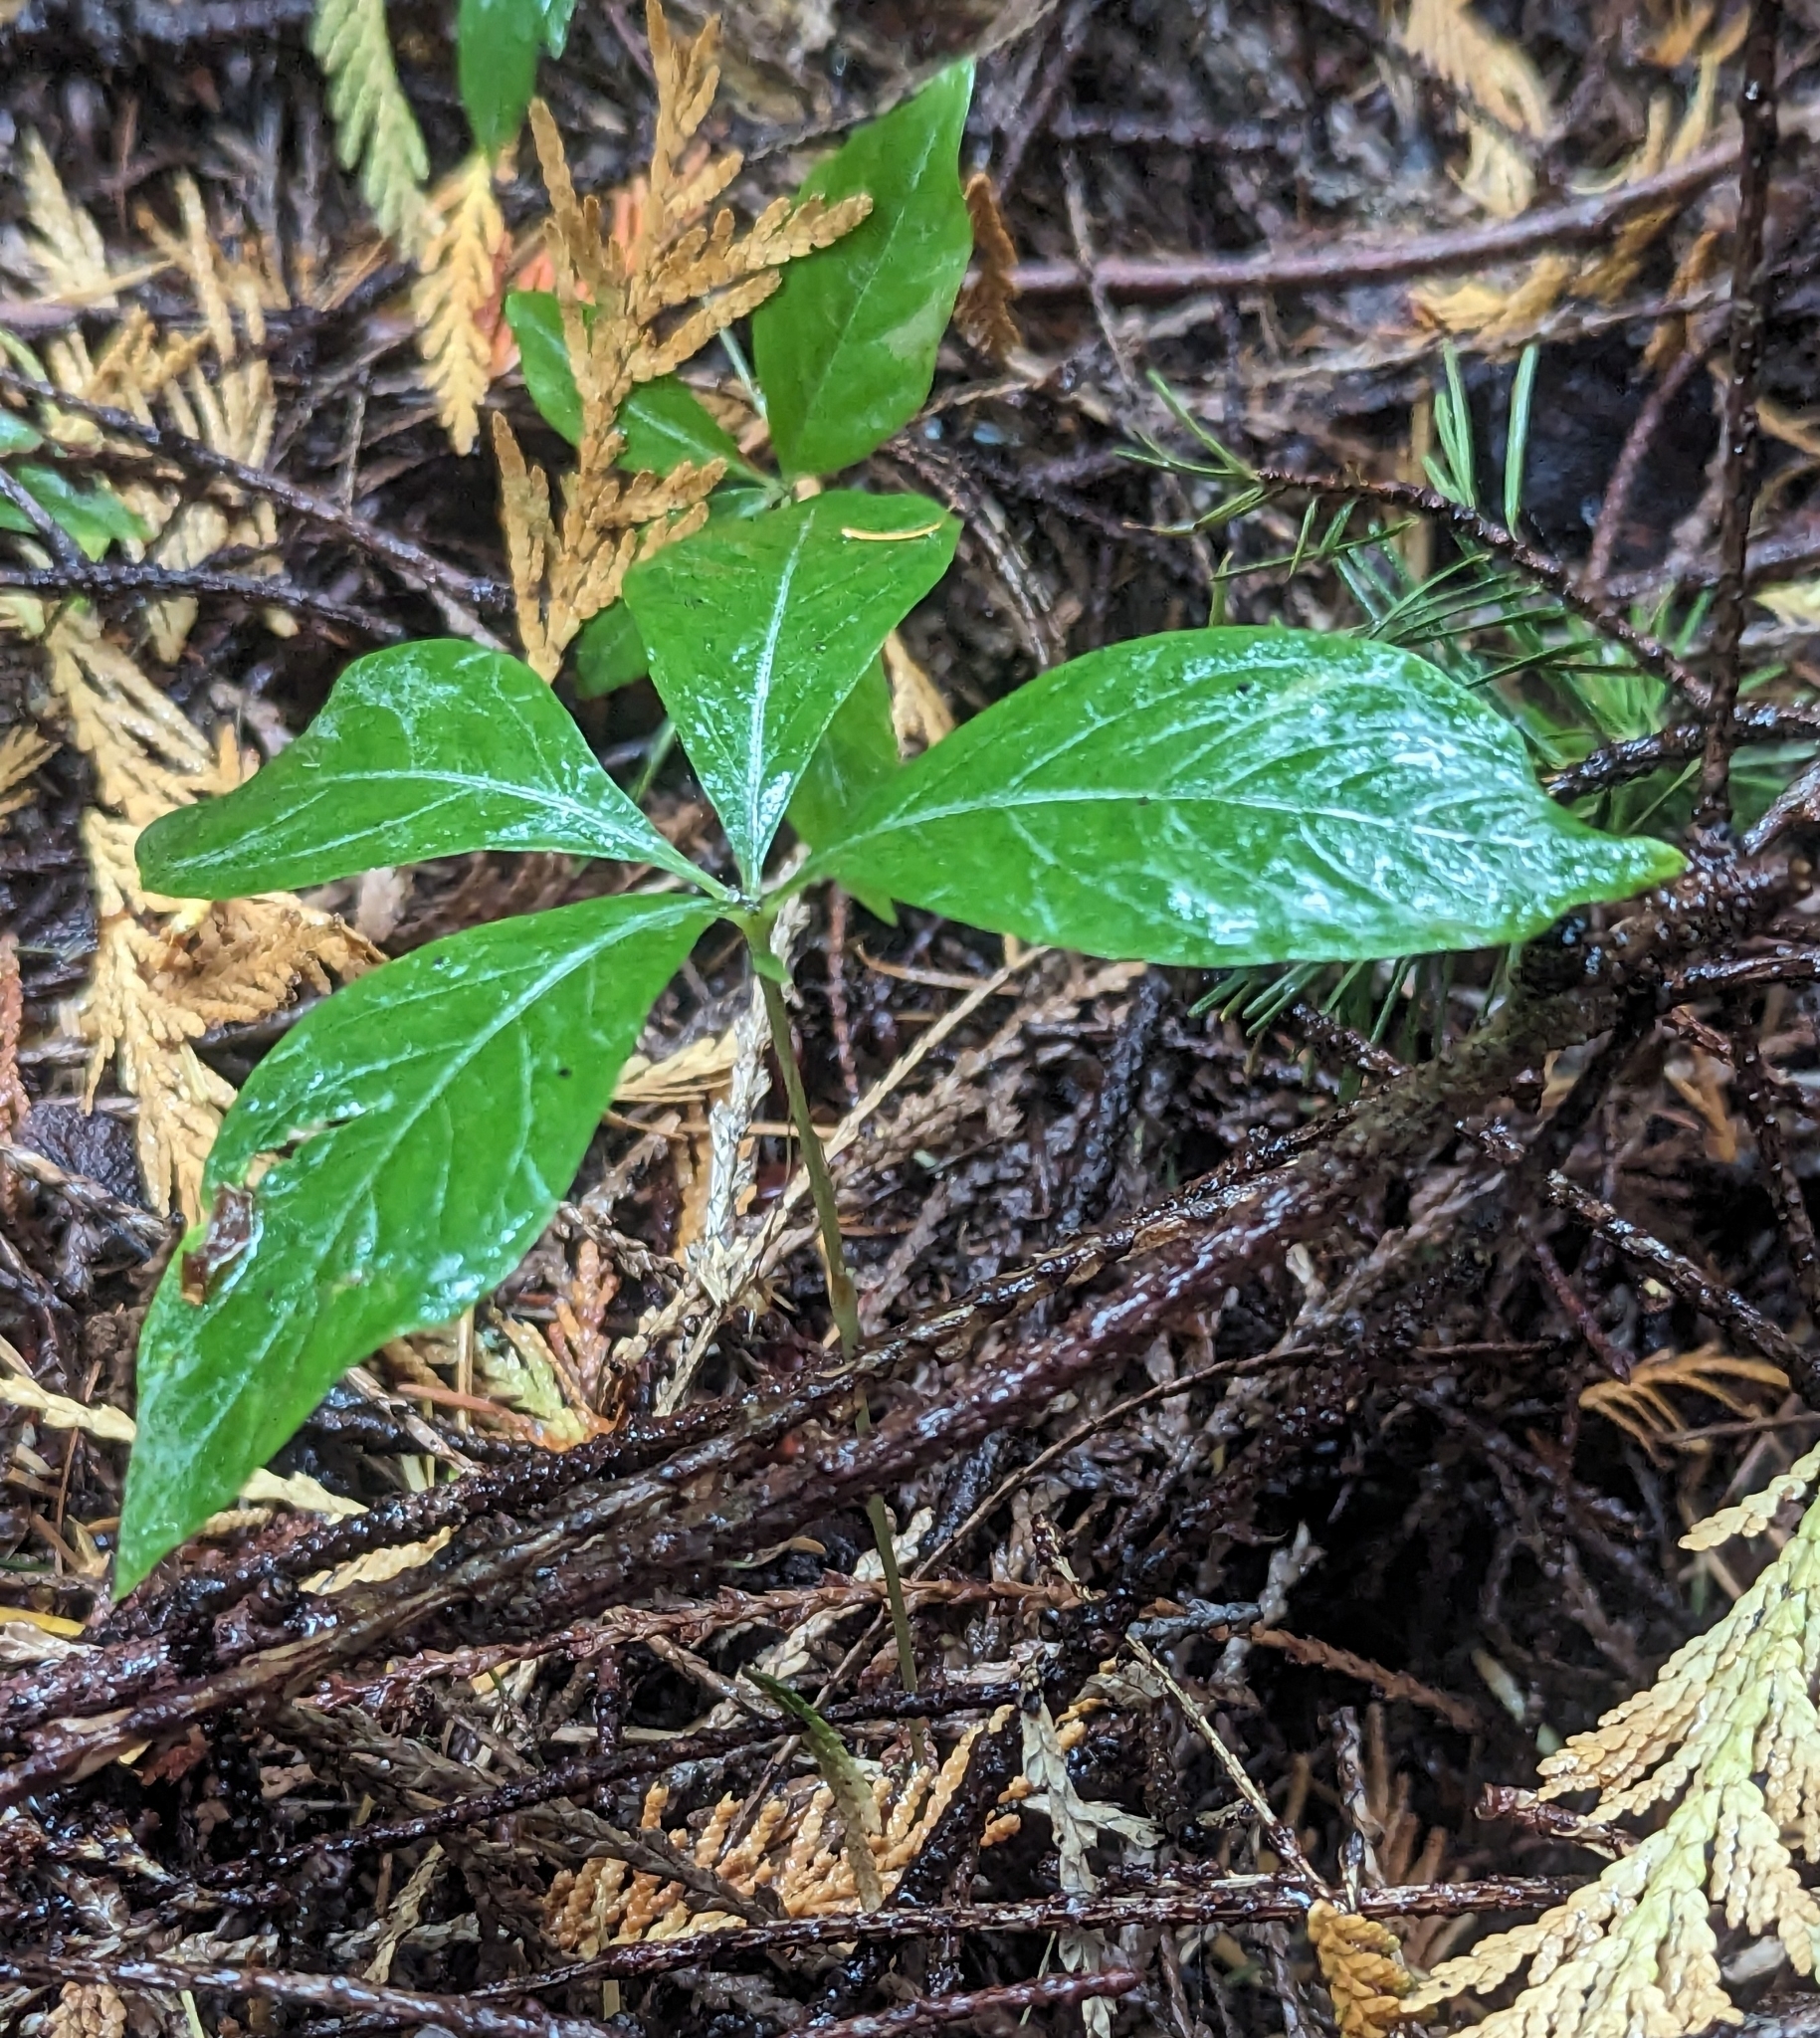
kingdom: Plantae
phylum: Tracheophyta
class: Magnoliopsida
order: Ericales
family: Primulaceae
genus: Lysimachia
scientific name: Lysimachia latifolia
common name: Pacific starflower
